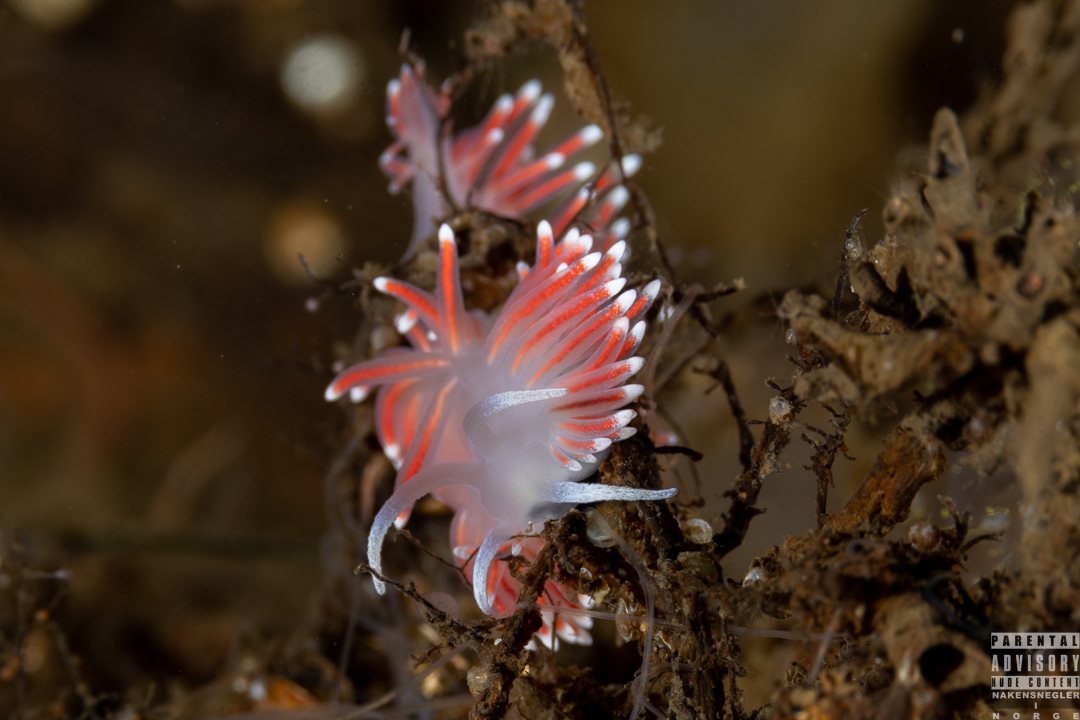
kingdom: Animalia
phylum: Mollusca
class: Gastropoda
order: Nudibranchia
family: Flabellinidae
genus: Carronella
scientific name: Carronella pellucida
